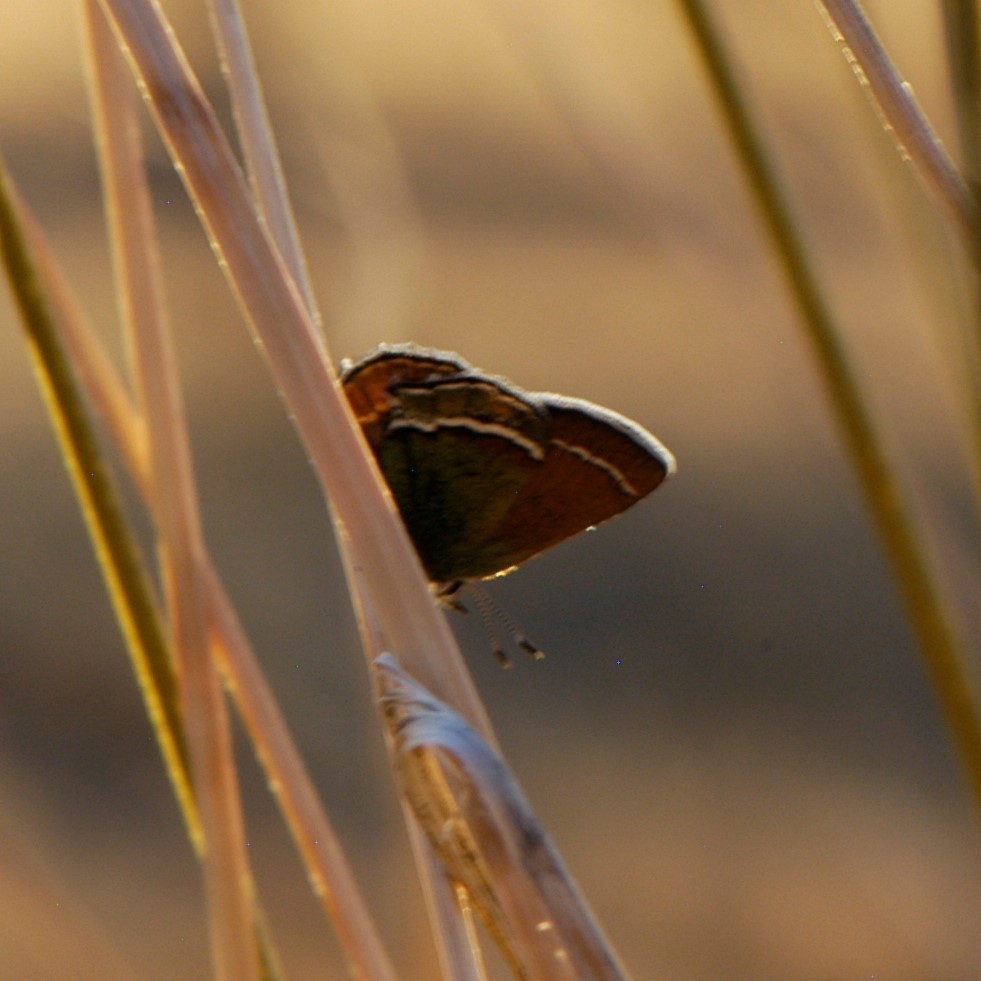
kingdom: Animalia
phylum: Arthropoda
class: Insecta
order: Lepidoptera
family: Lycaenidae
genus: Sandia
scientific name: Sandia mcfarlandi
